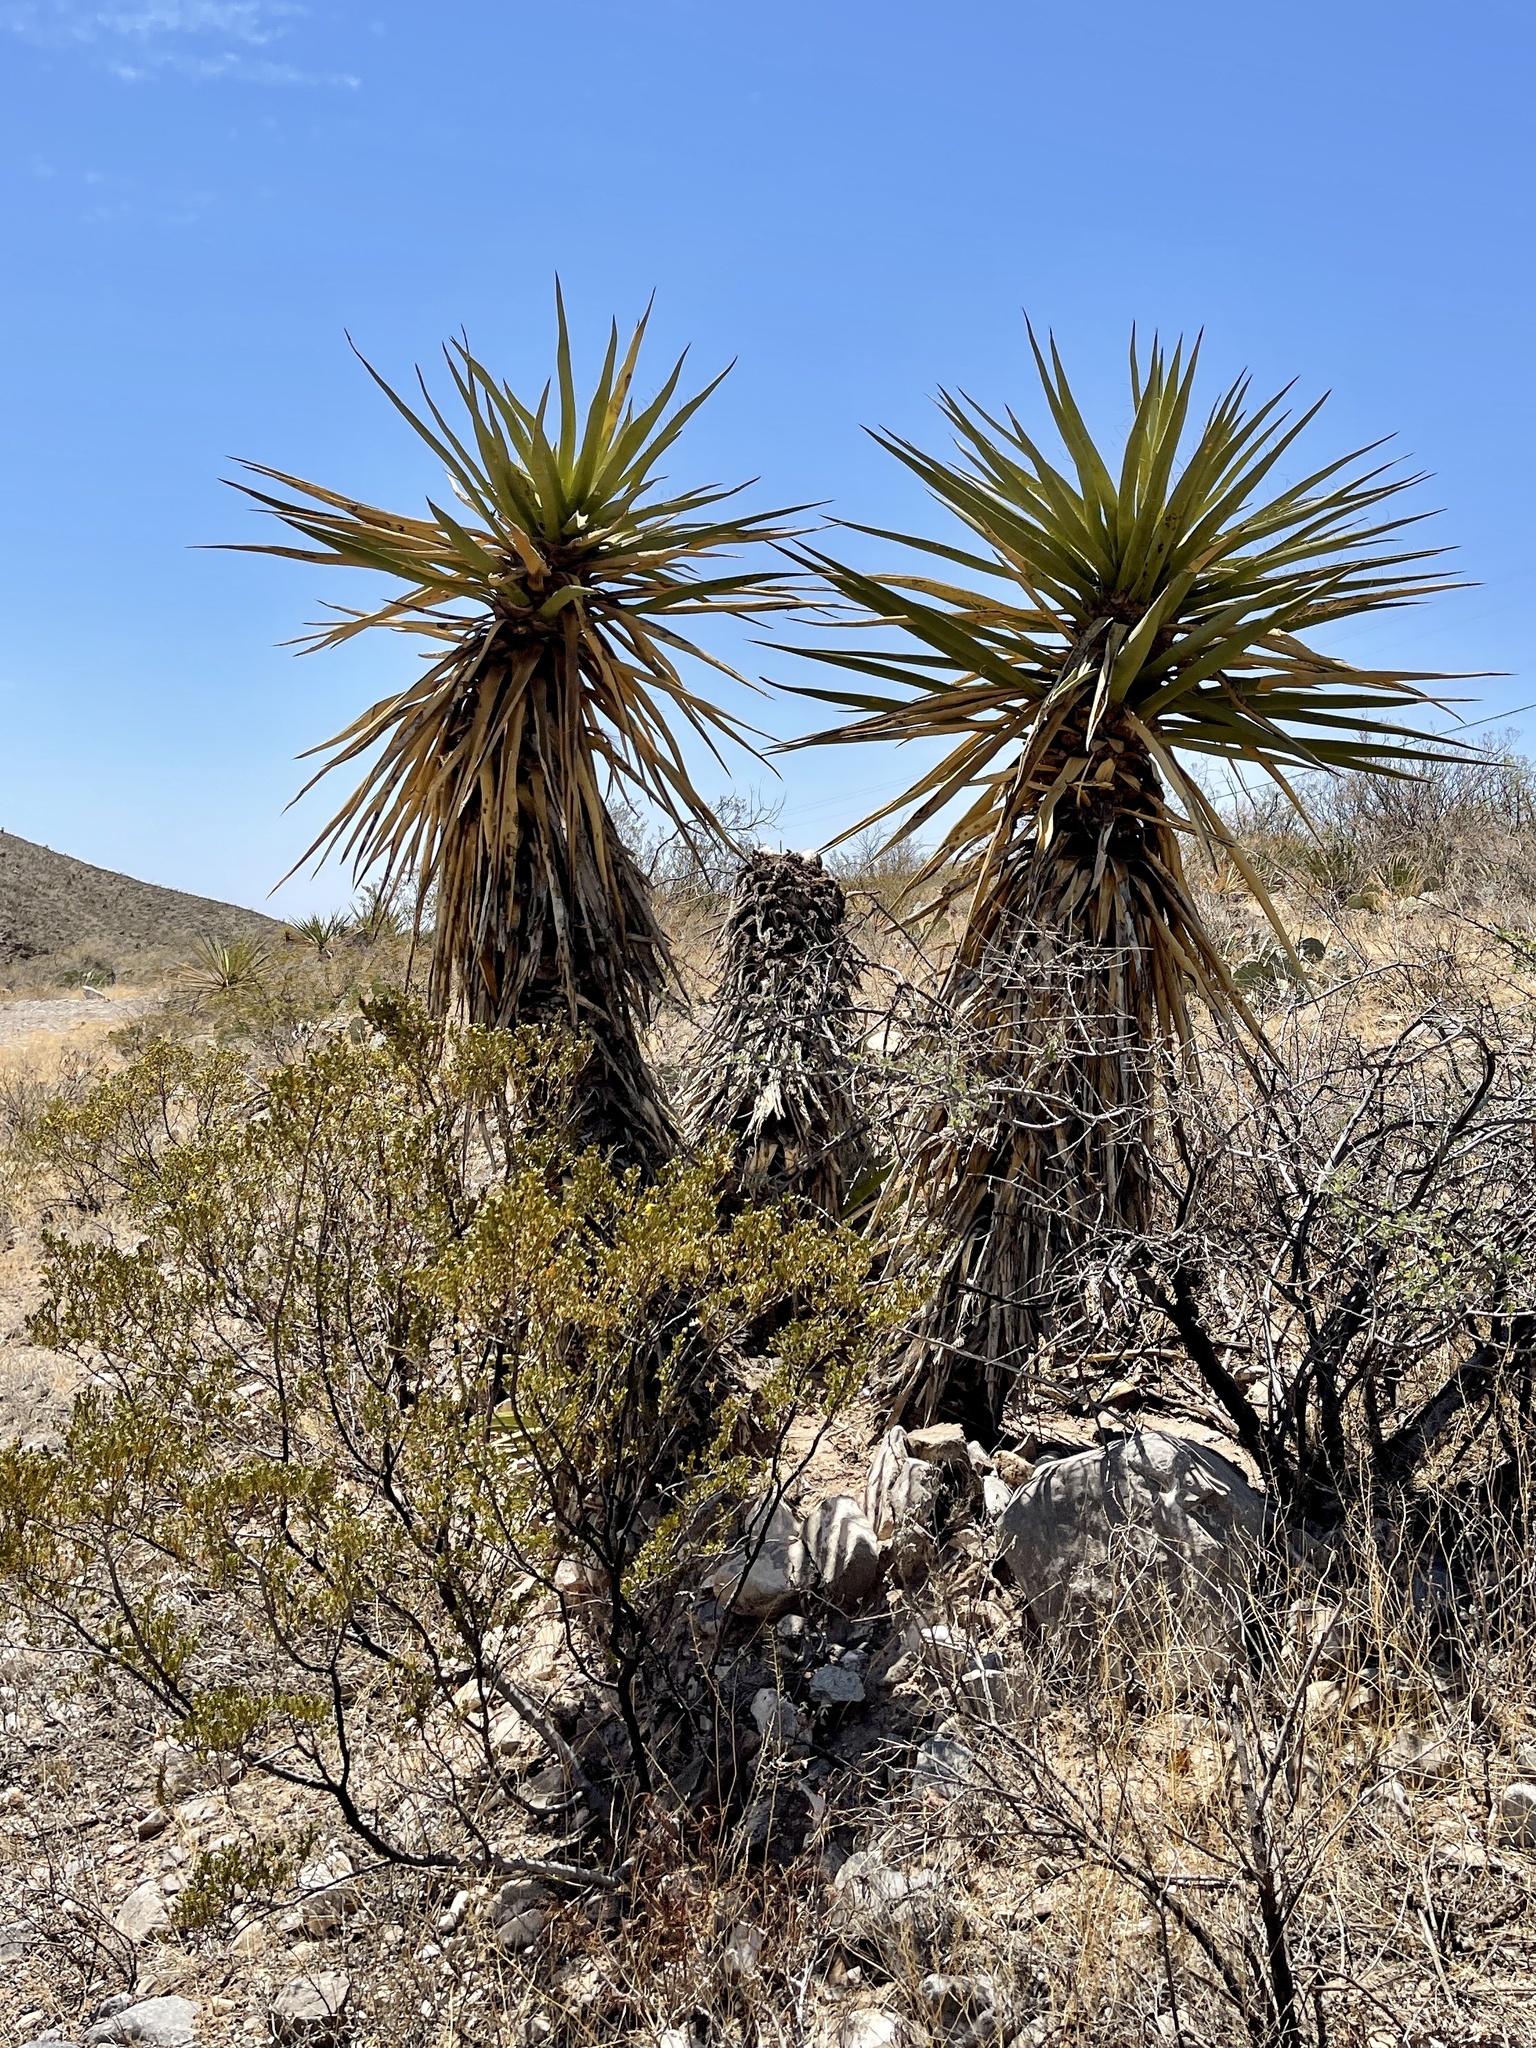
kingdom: Plantae
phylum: Tracheophyta
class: Liliopsida
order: Asparagales
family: Asparagaceae
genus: Yucca
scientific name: Yucca treculiana
